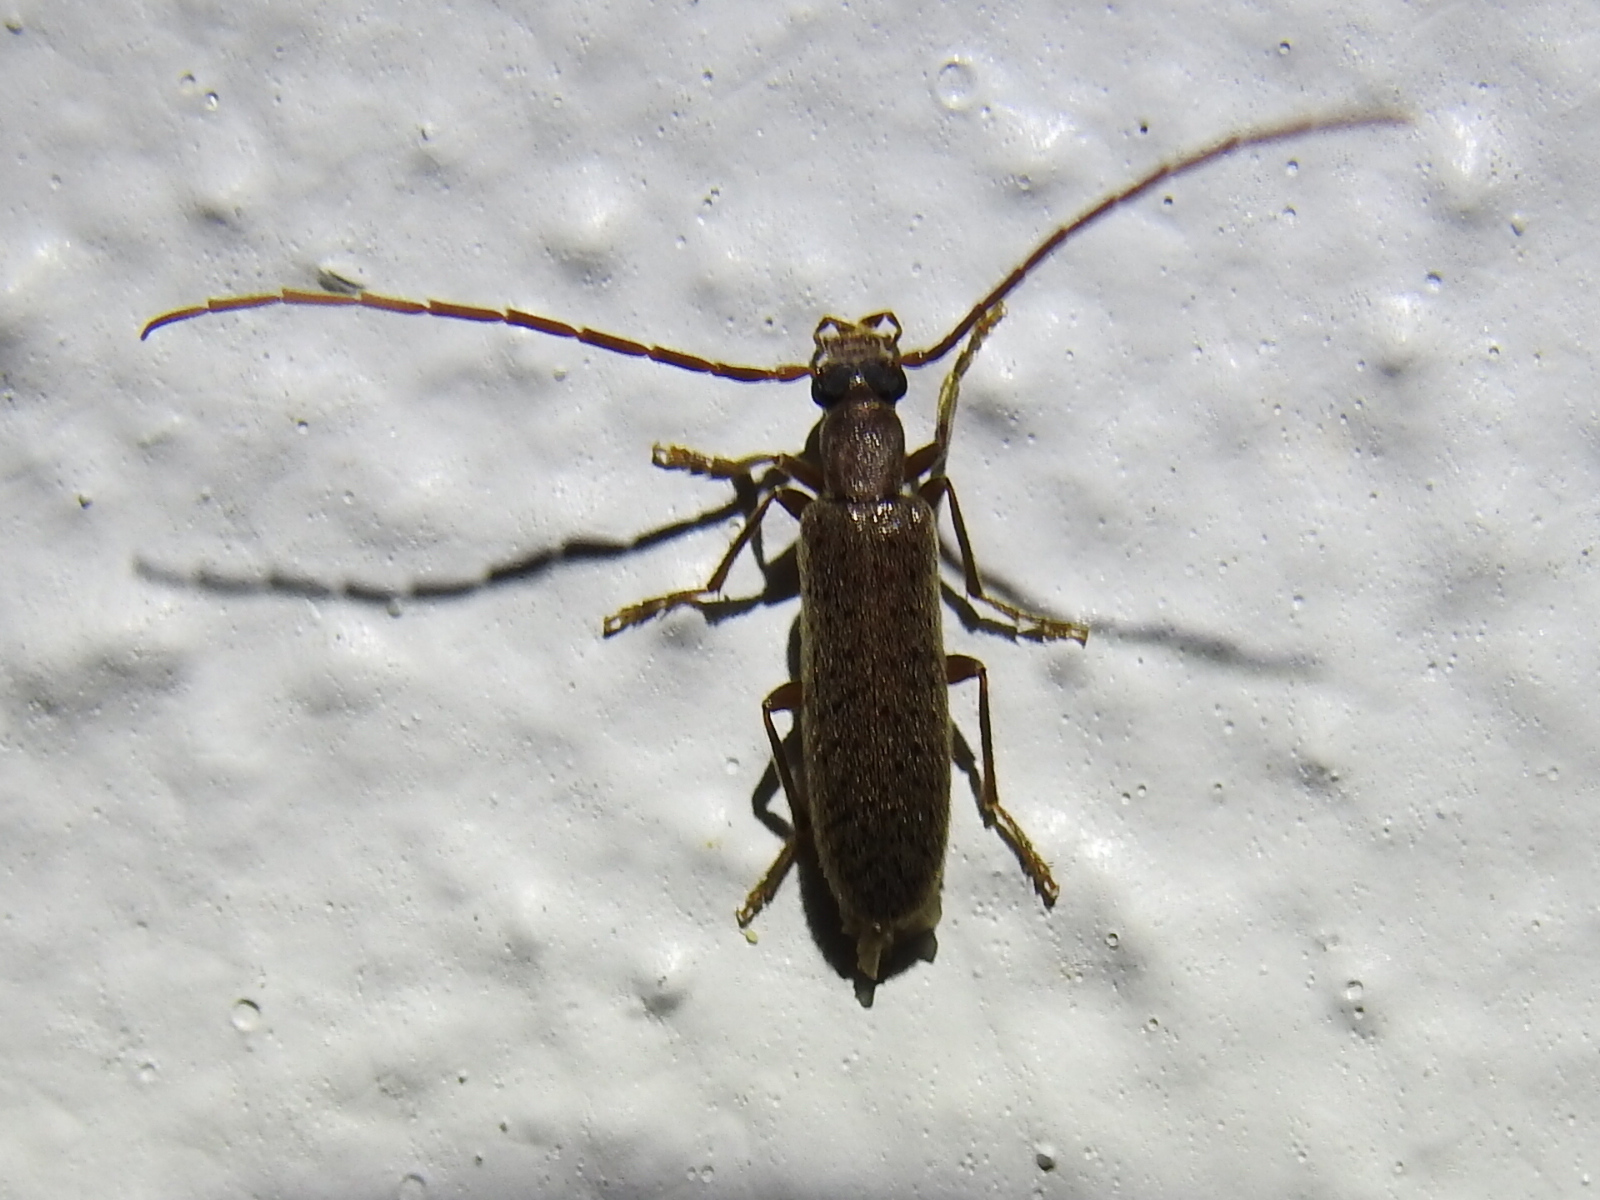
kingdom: Animalia
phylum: Arthropoda
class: Insecta
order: Coleoptera
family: Oedemeridae
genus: Sparedrus
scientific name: Sparedrus aspersus
